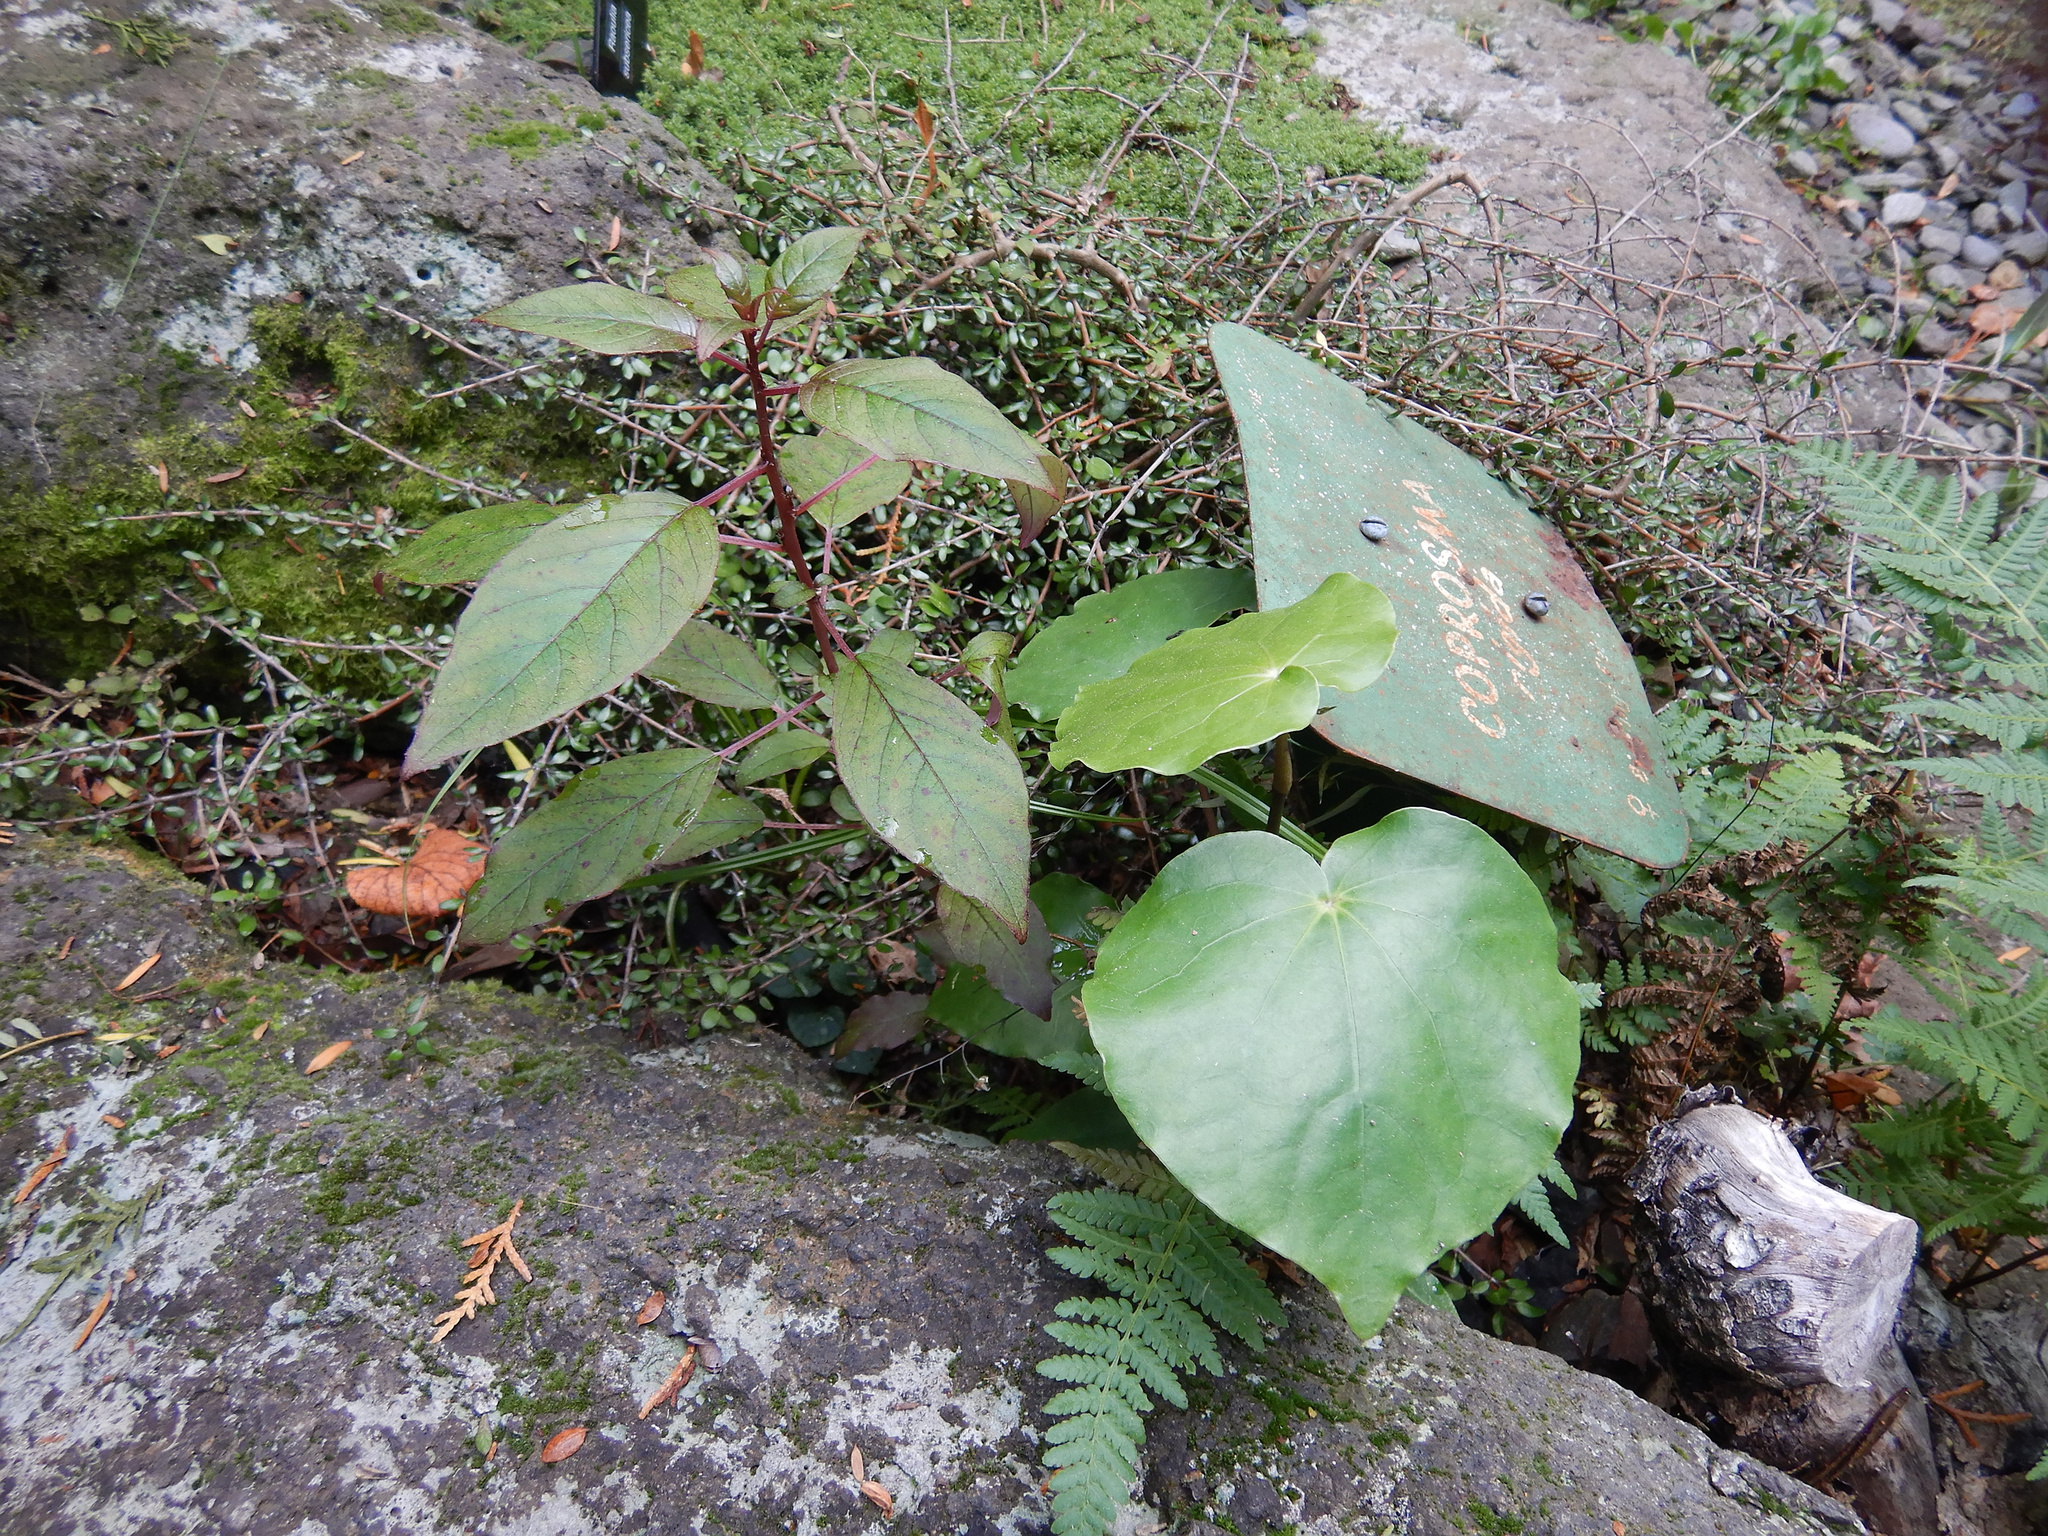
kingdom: Plantae
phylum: Tracheophyta
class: Magnoliopsida
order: Myrtales
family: Onagraceae
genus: Fuchsia
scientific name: Fuchsia excorticata
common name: Tree fuchsia
